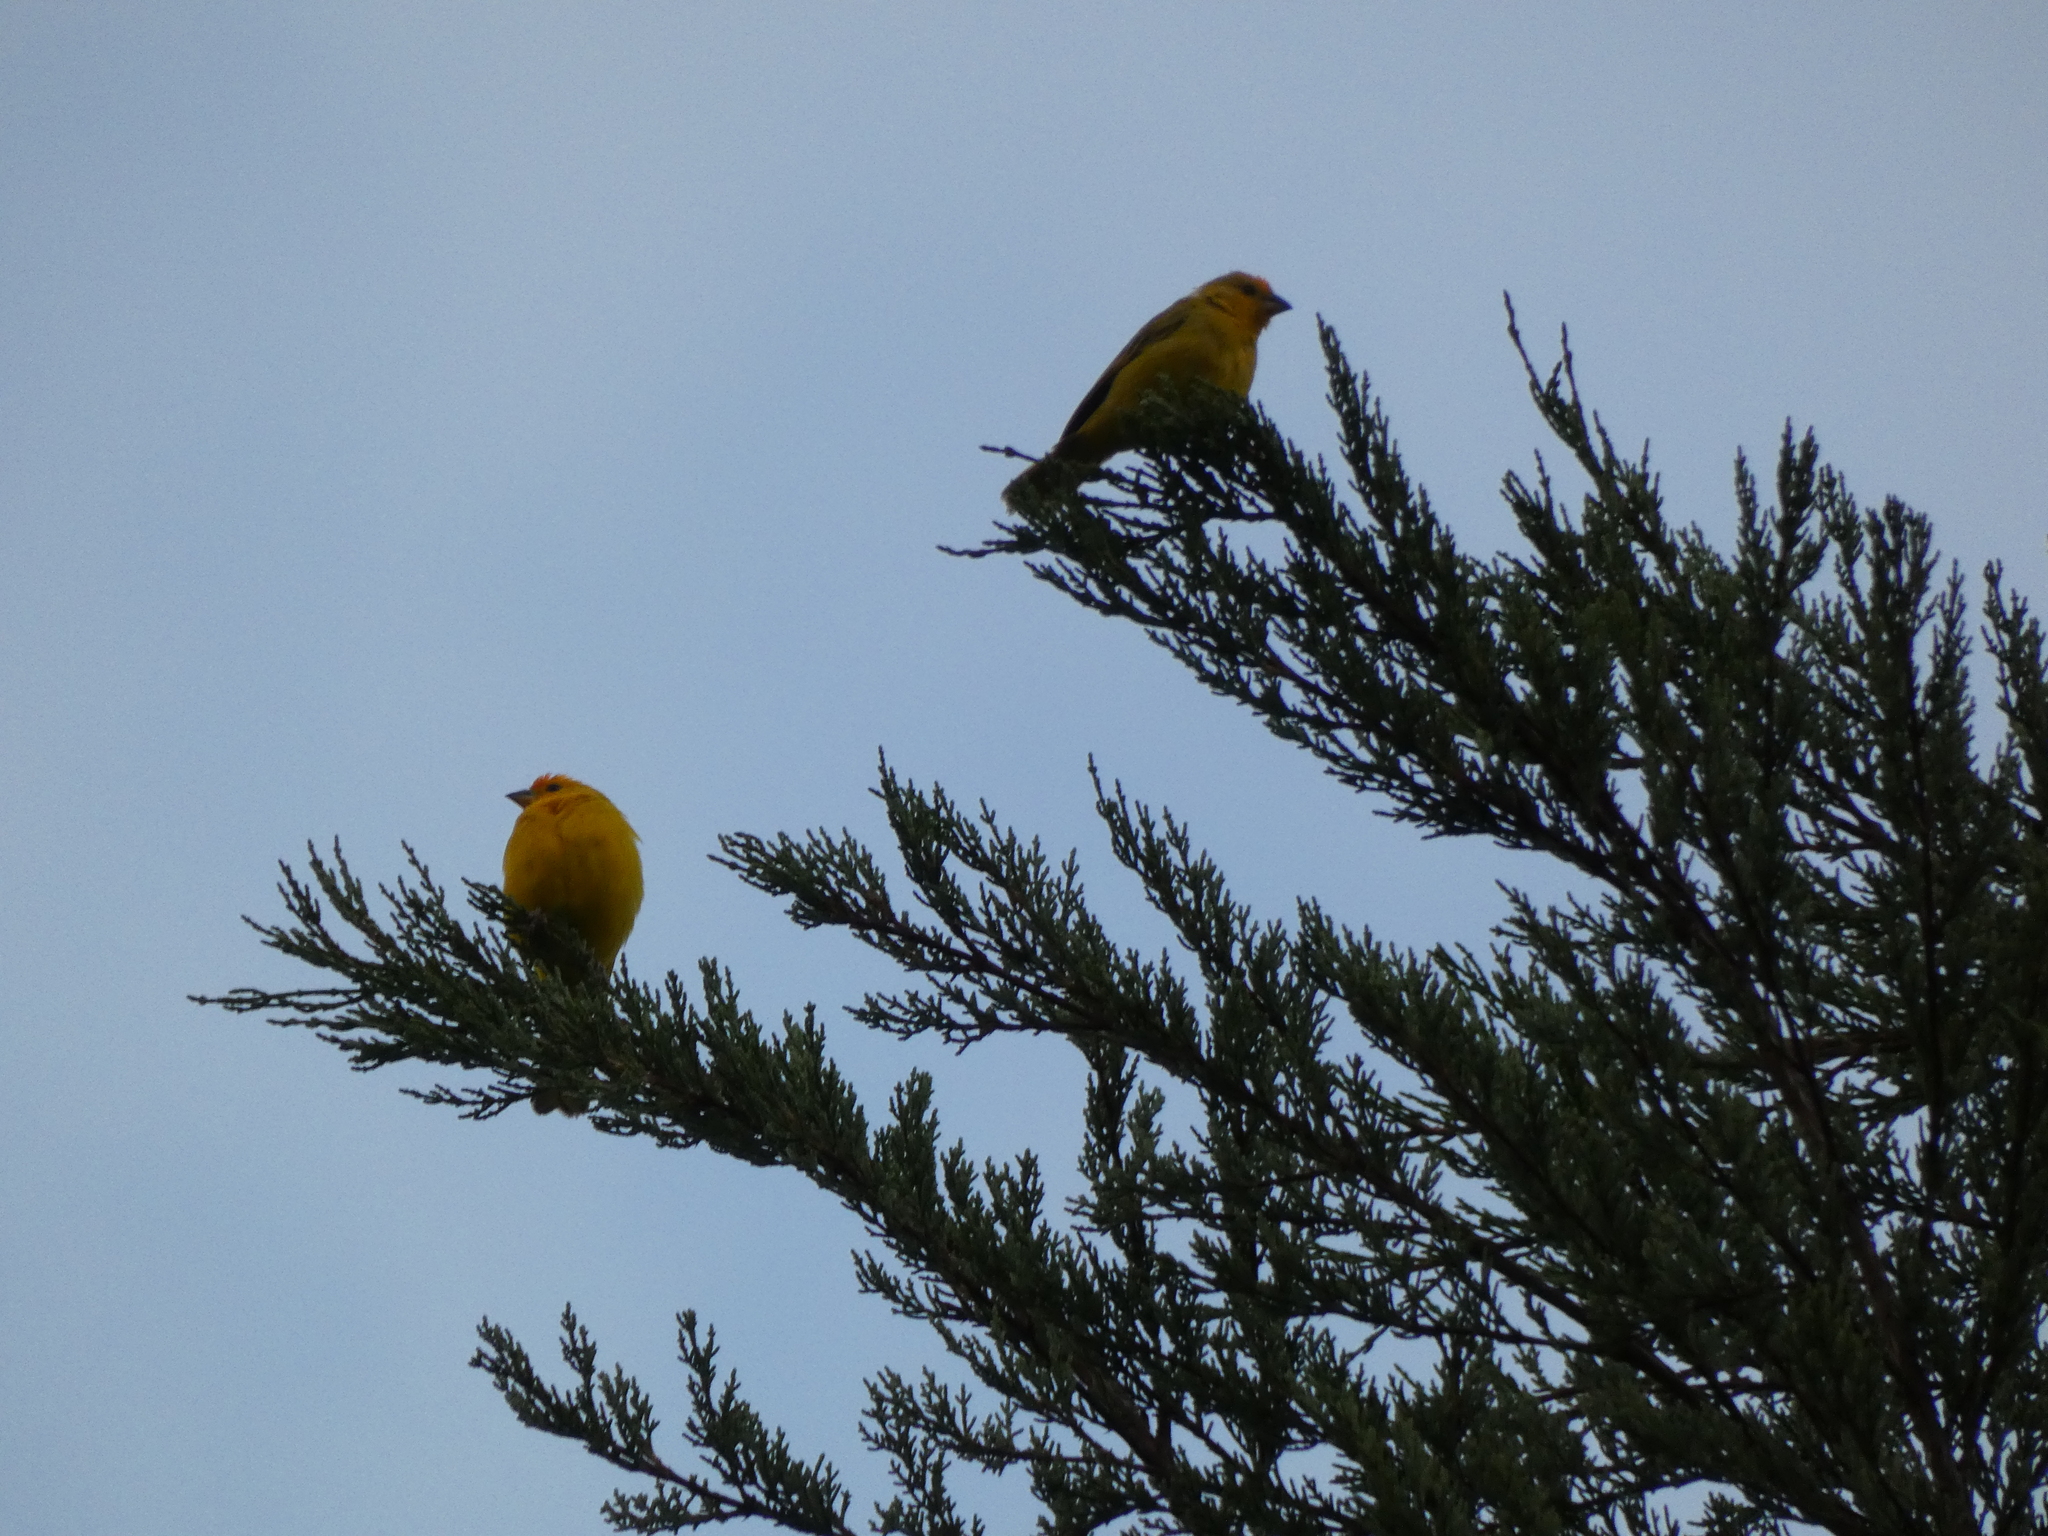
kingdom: Animalia
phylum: Chordata
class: Aves
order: Passeriformes
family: Thraupidae
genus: Sicalis
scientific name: Sicalis flaveola
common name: Saffron finch
